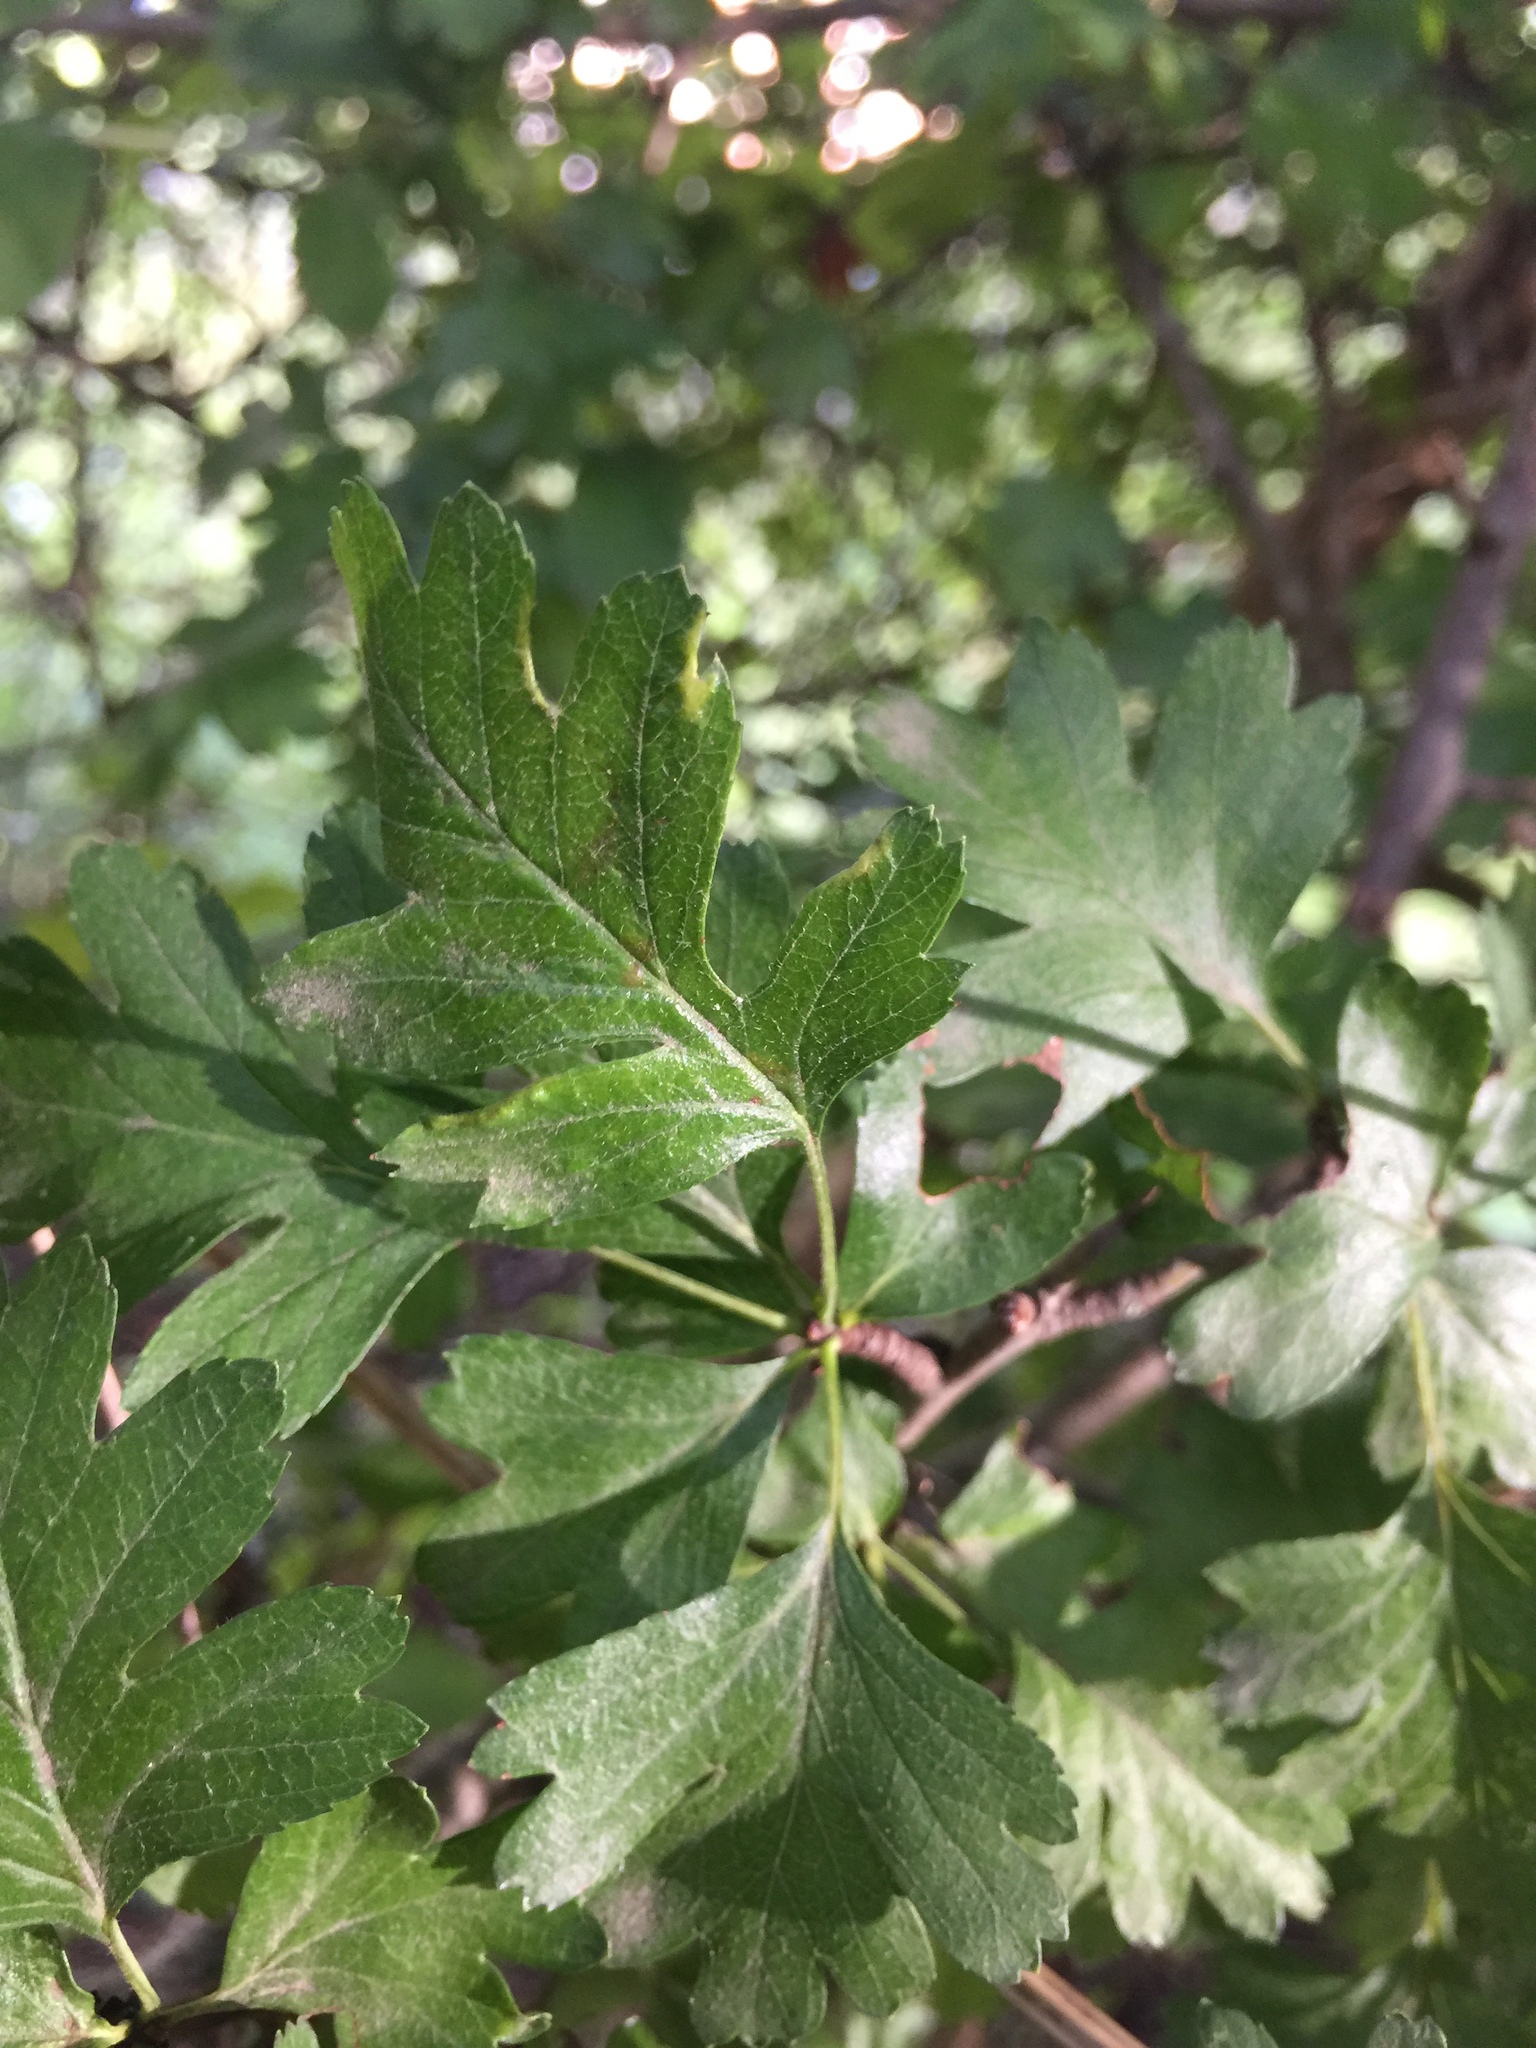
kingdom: Animalia
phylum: Arthropoda
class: Arachnida
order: Trombidiformes
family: Eriophyidae
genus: Phyllocoptes
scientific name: Phyllocoptes goniothorax
